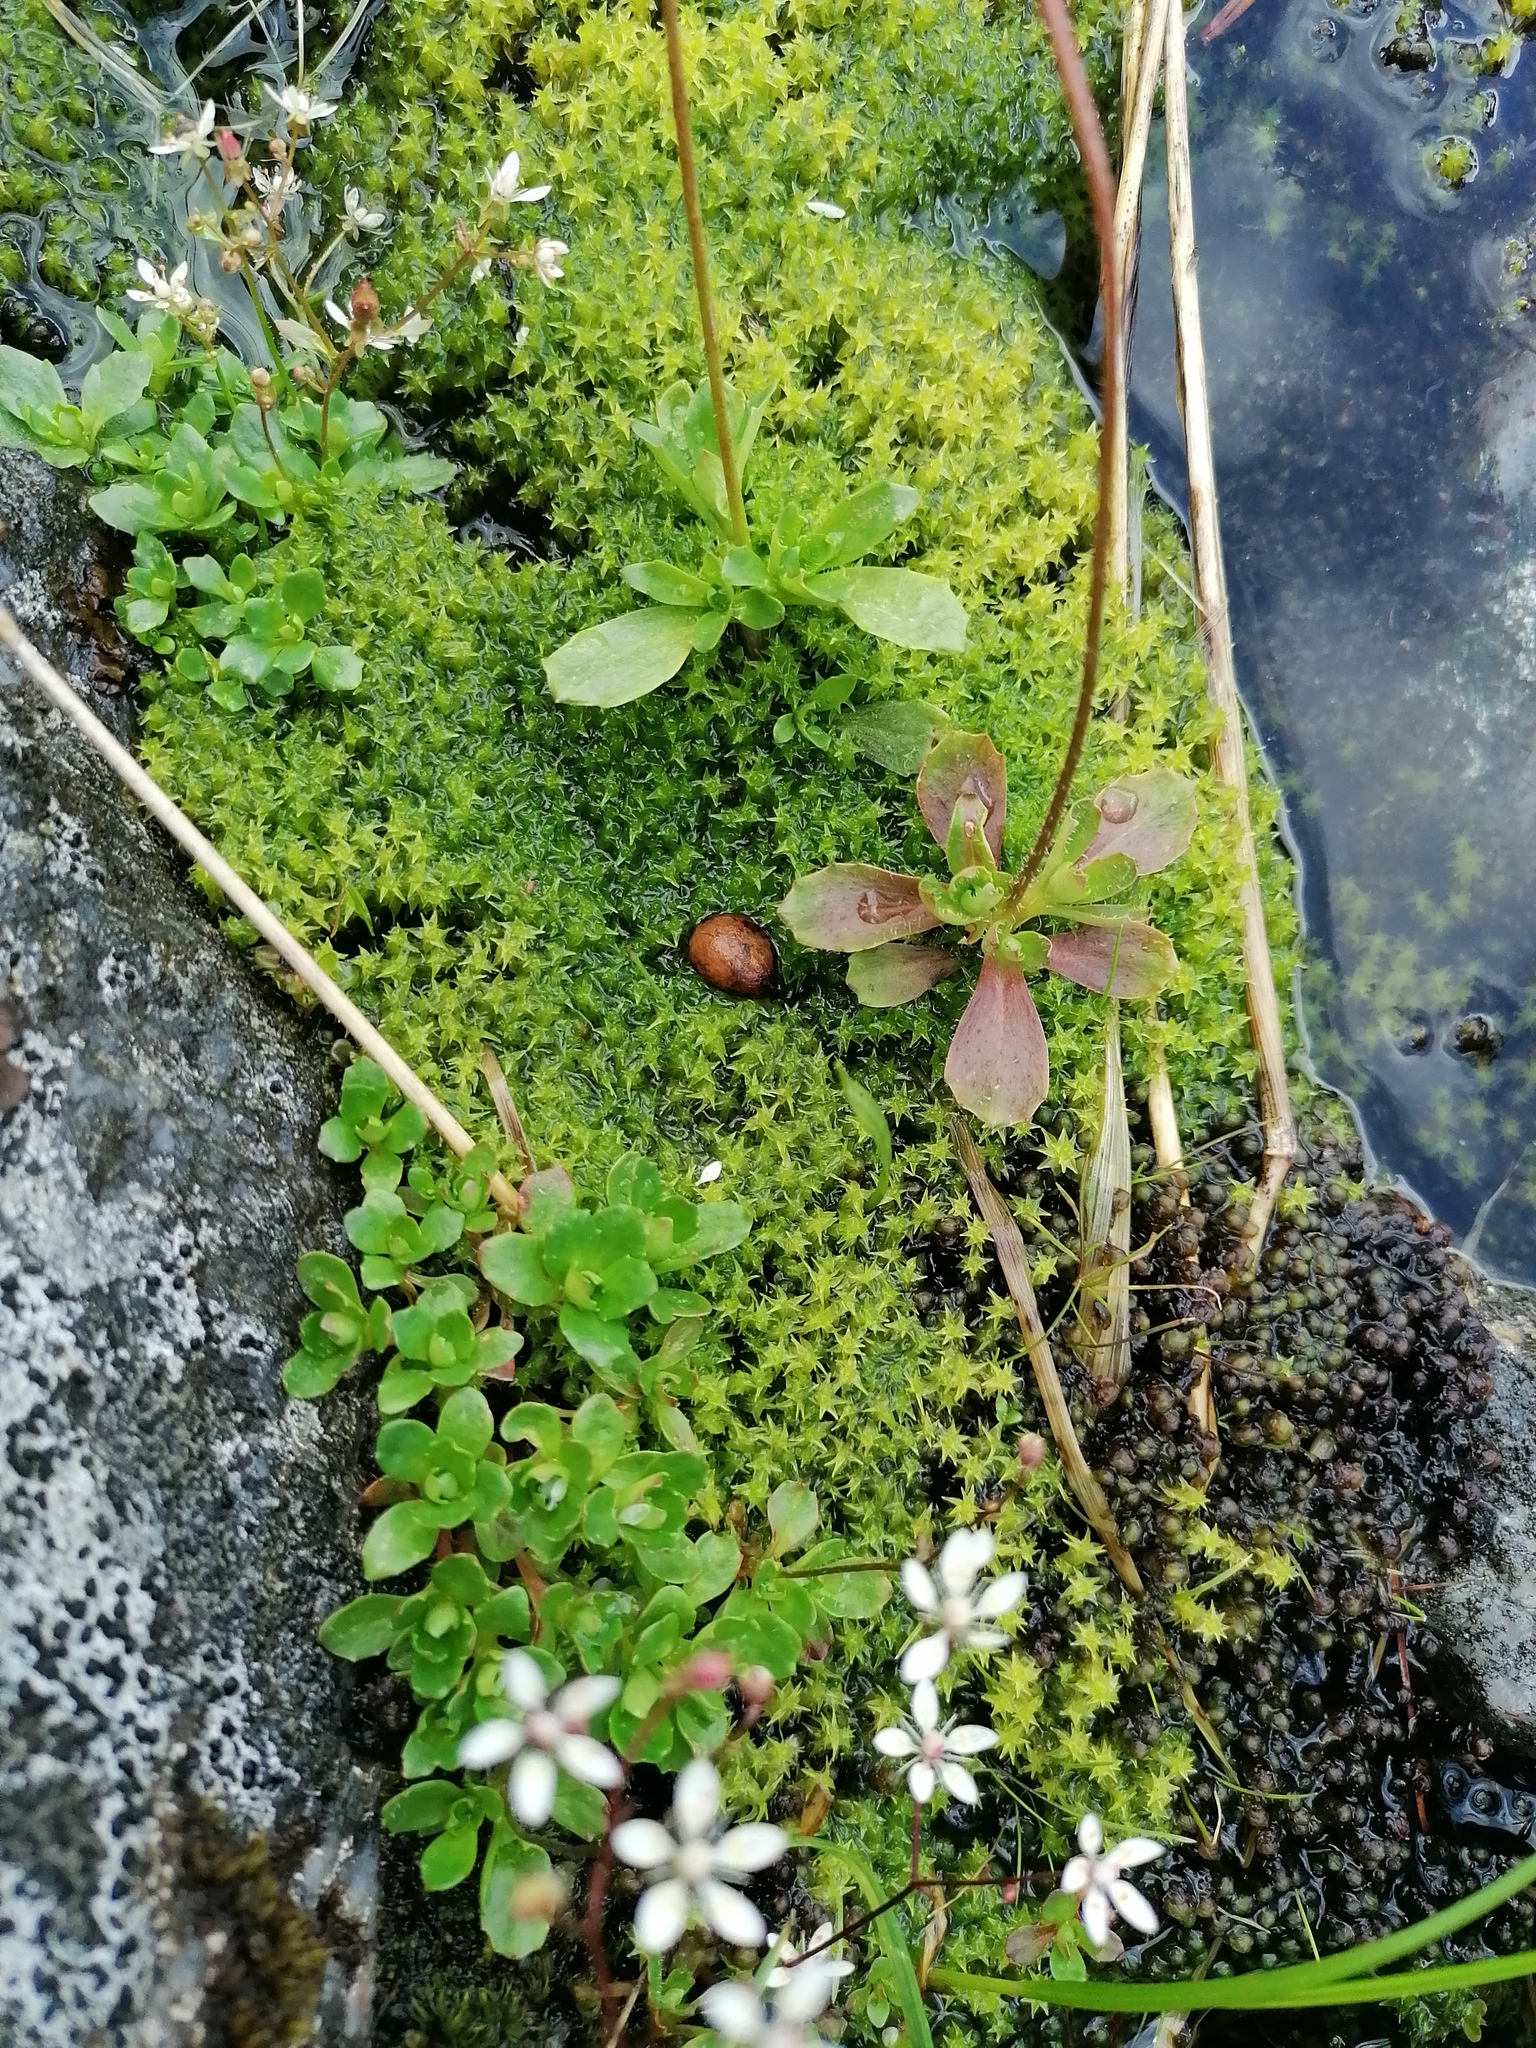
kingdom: Plantae
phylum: Tracheophyta
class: Magnoliopsida
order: Saxifragales
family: Saxifragaceae
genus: Micranthes
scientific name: Micranthes stellaris
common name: Starry saxifrage
